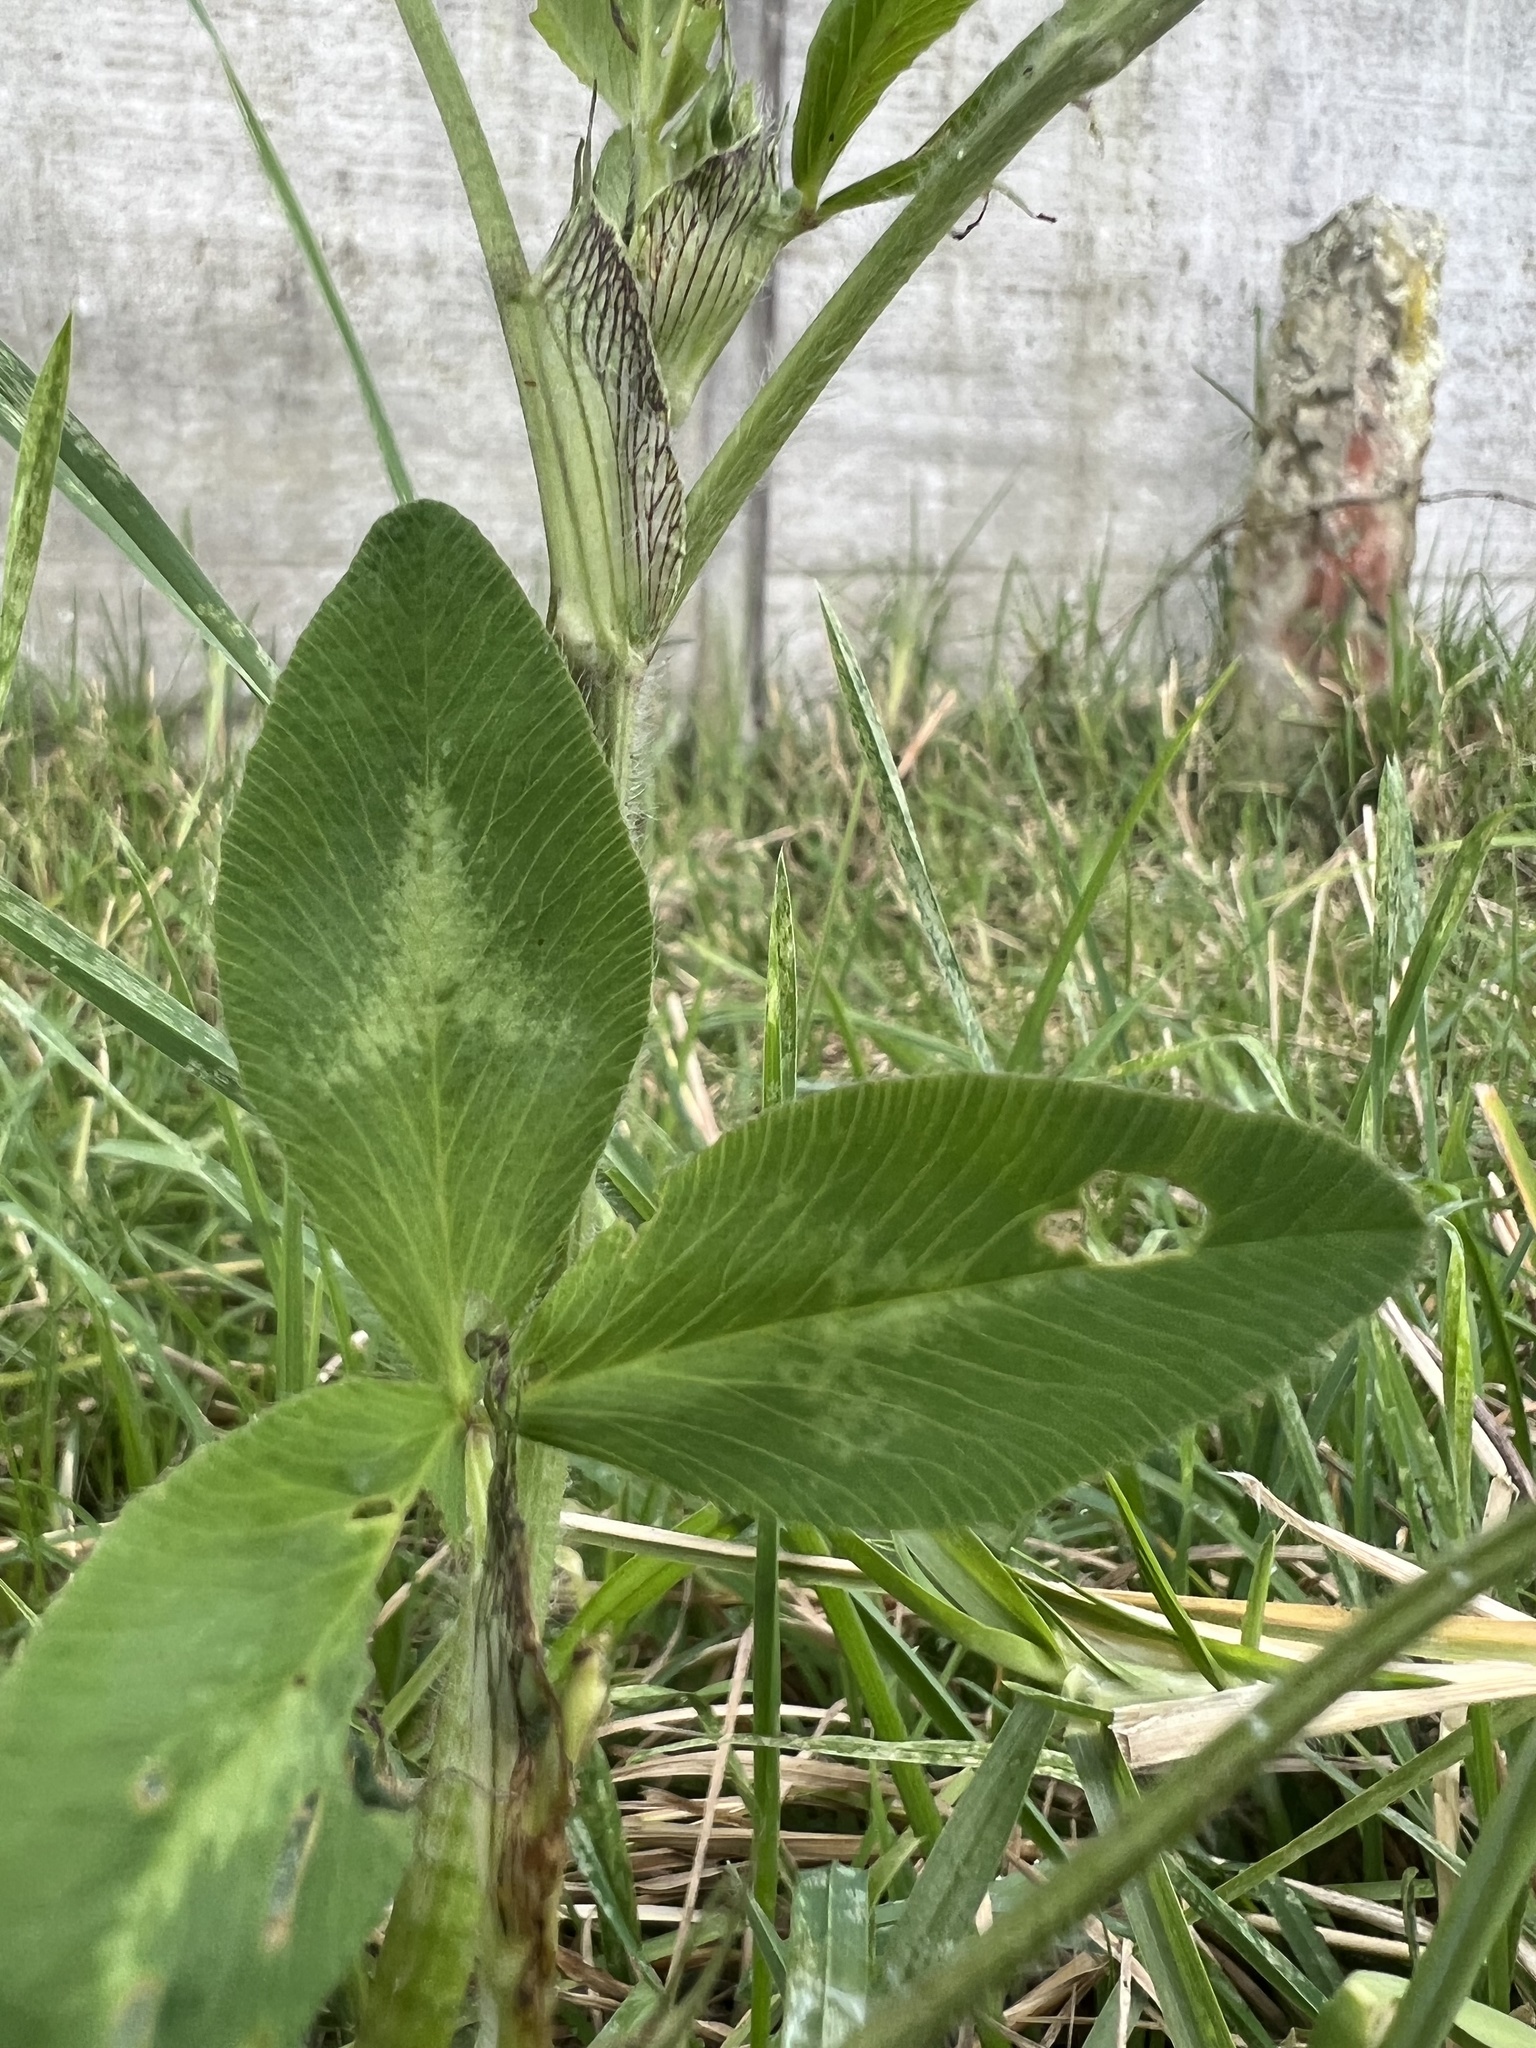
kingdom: Plantae
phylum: Tracheophyta
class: Magnoliopsida
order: Fabales
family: Fabaceae
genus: Trifolium
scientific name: Trifolium pratense
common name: Red clover
